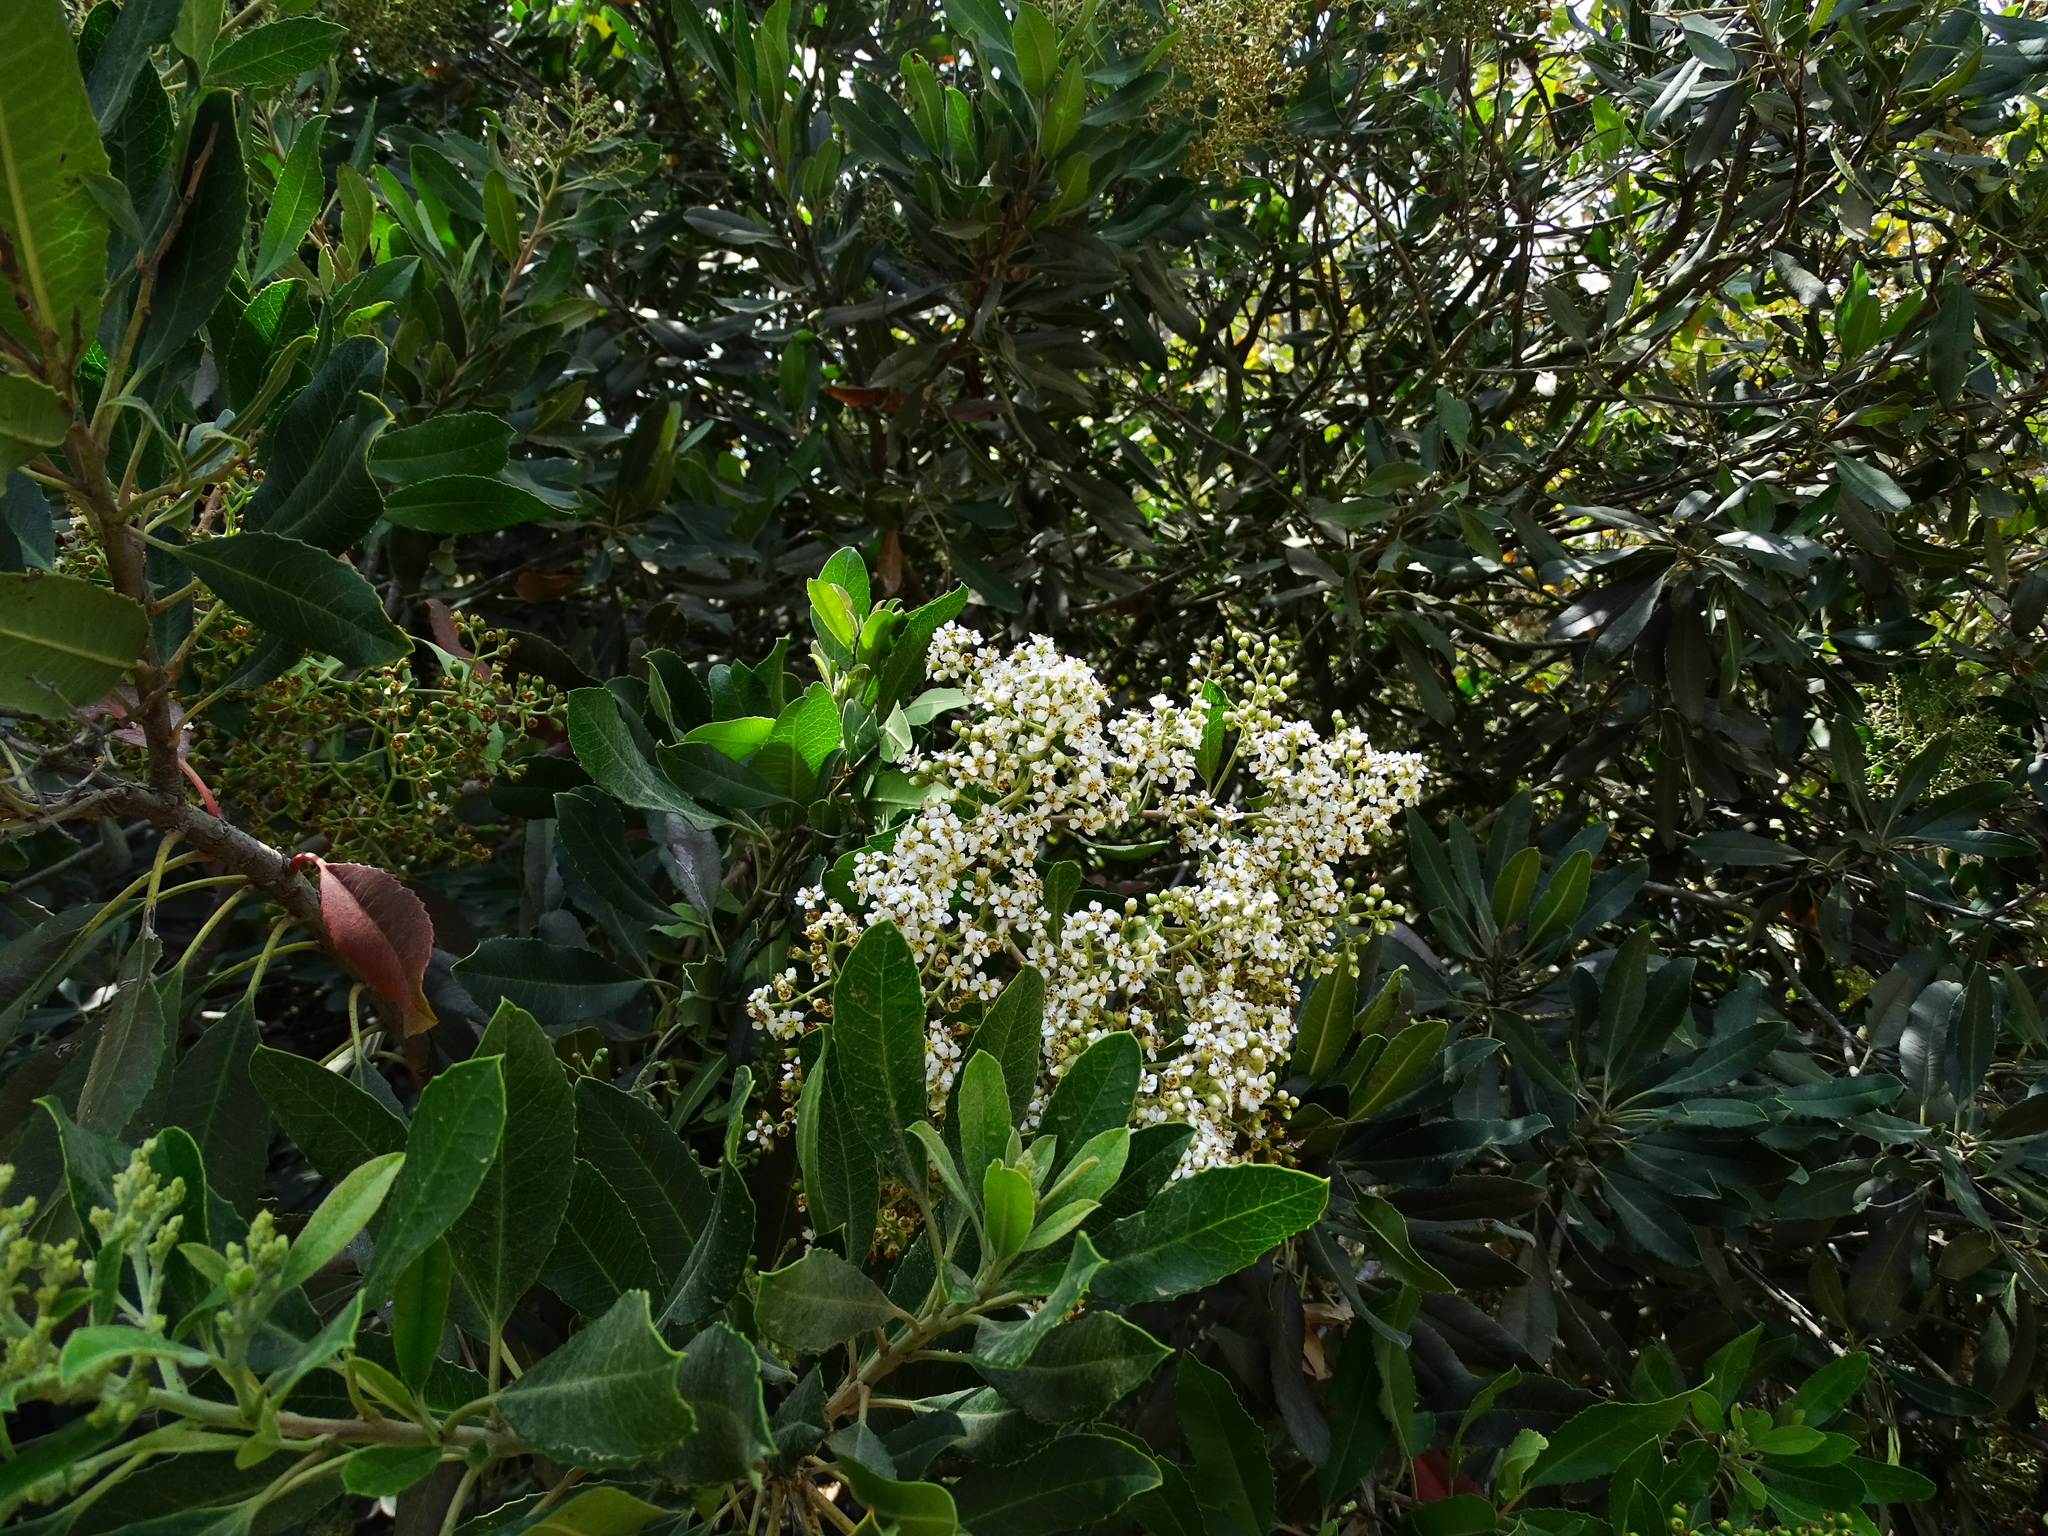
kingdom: Plantae
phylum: Tracheophyta
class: Magnoliopsida
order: Rosales
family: Rosaceae
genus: Heteromeles
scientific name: Heteromeles arbutifolia
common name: California-holly
